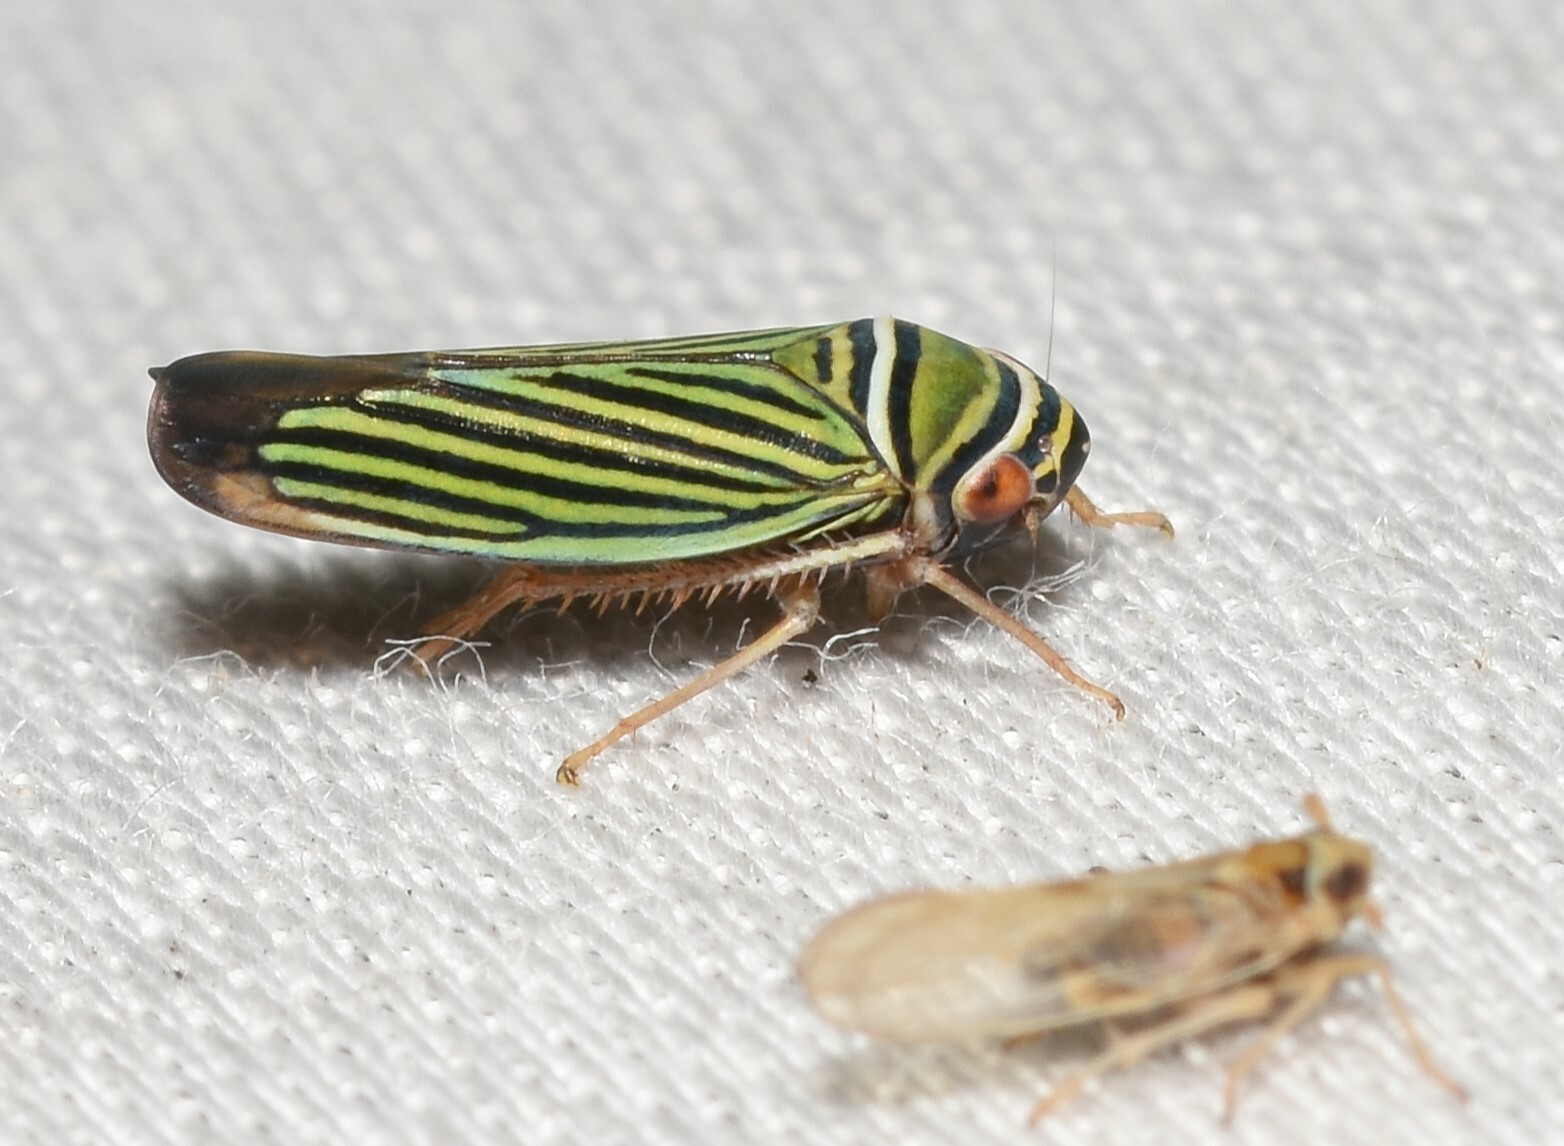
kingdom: Animalia
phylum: Arthropoda
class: Insecta
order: Hemiptera
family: Cicadellidae
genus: Tylozygus
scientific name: Tylozygus bifidus
